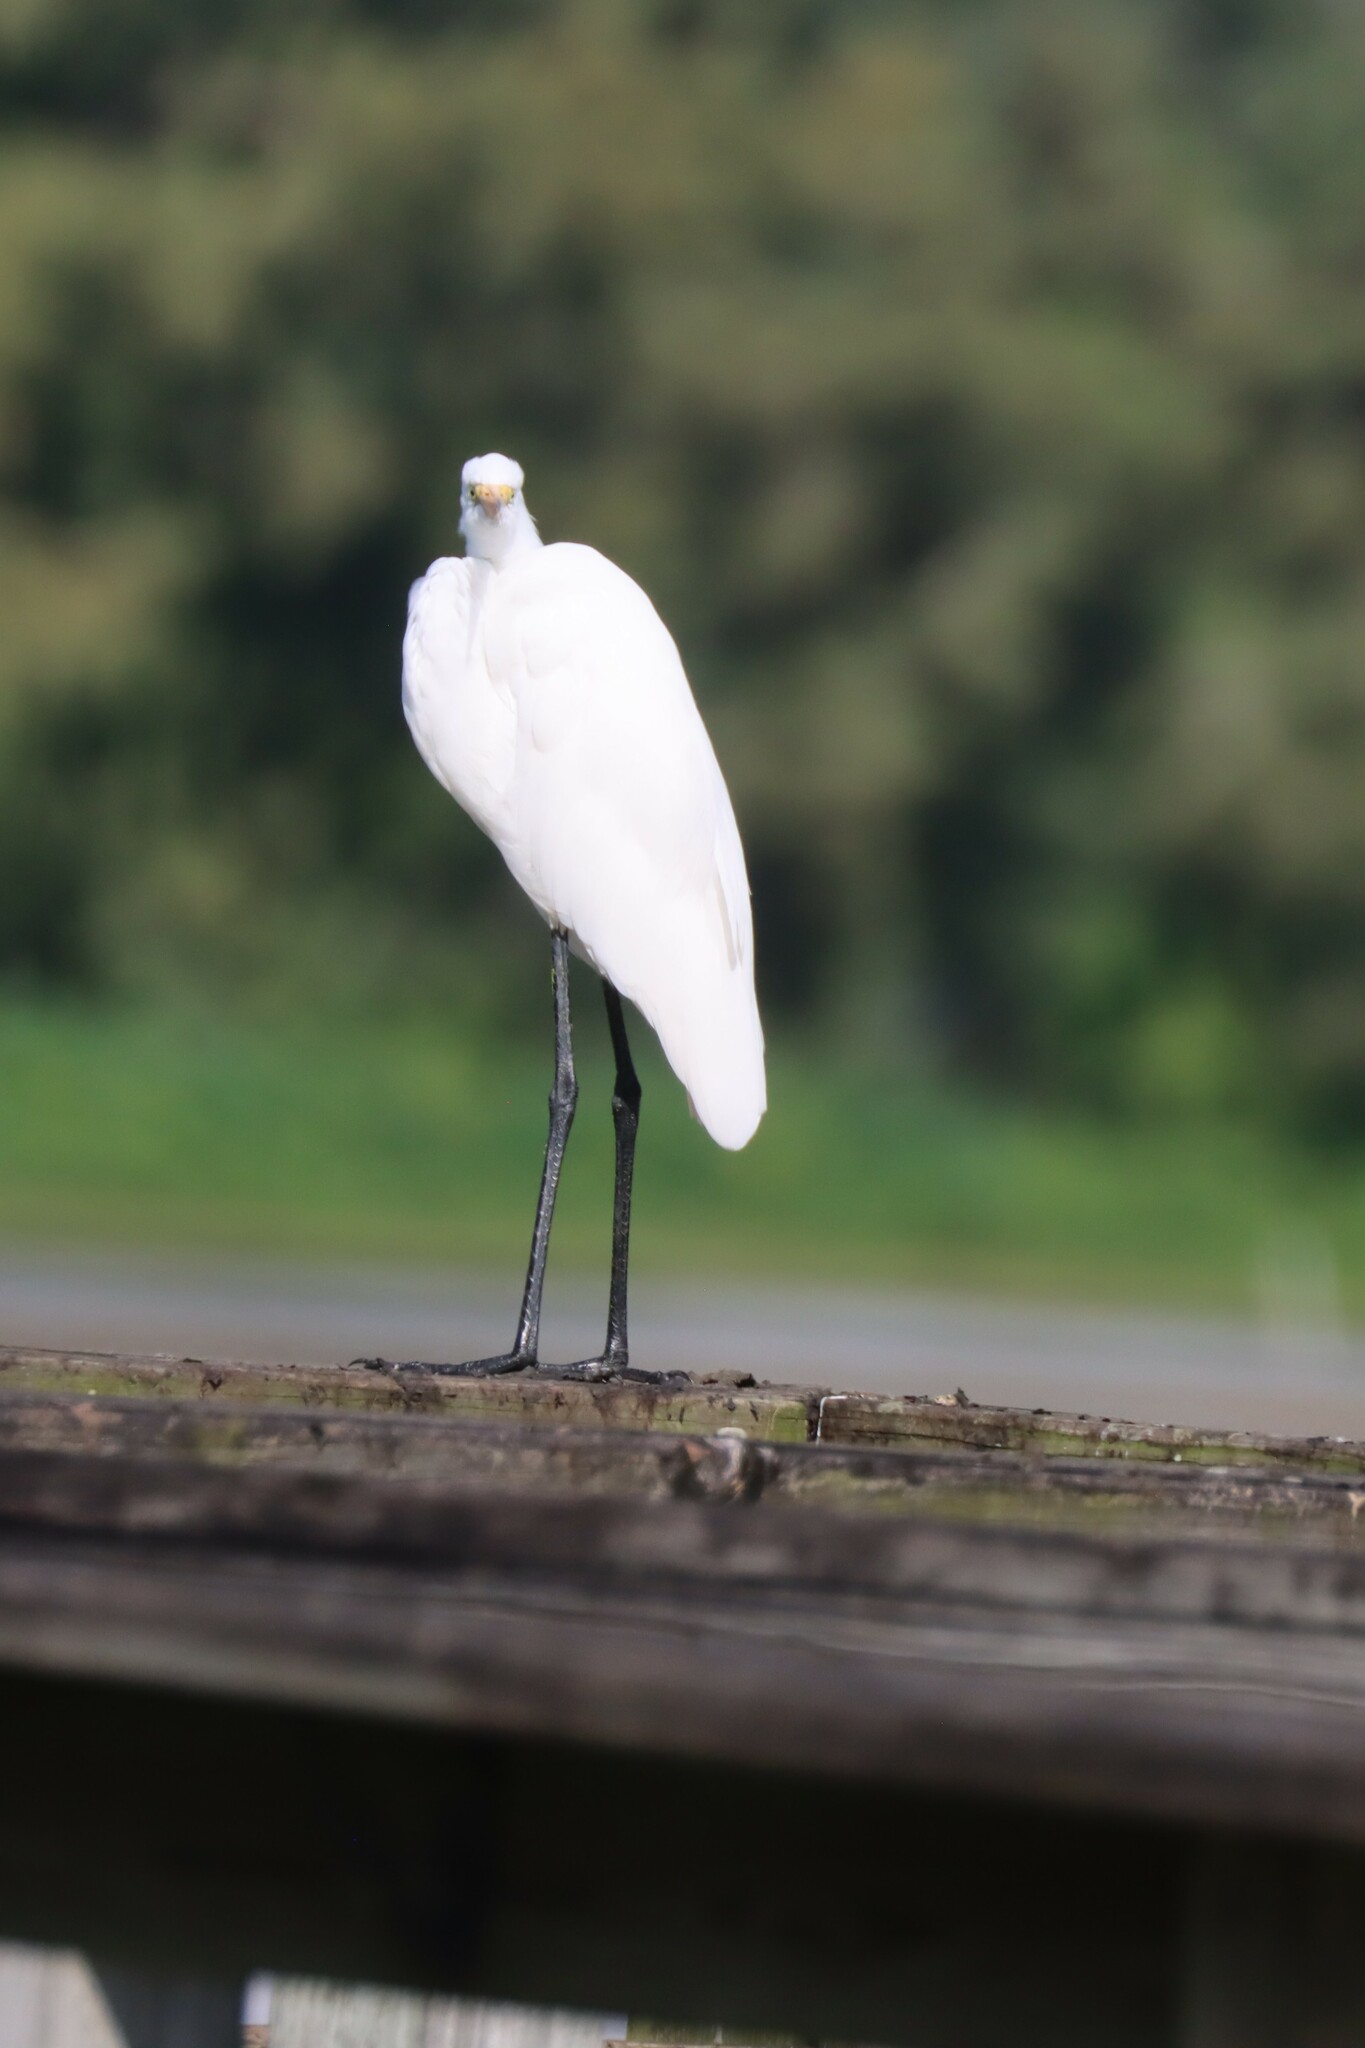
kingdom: Animalia
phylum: Chordata
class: Aves
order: Pelecaniformes
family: Ardeidae
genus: Ardea
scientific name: Ardea alba
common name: Great egret
